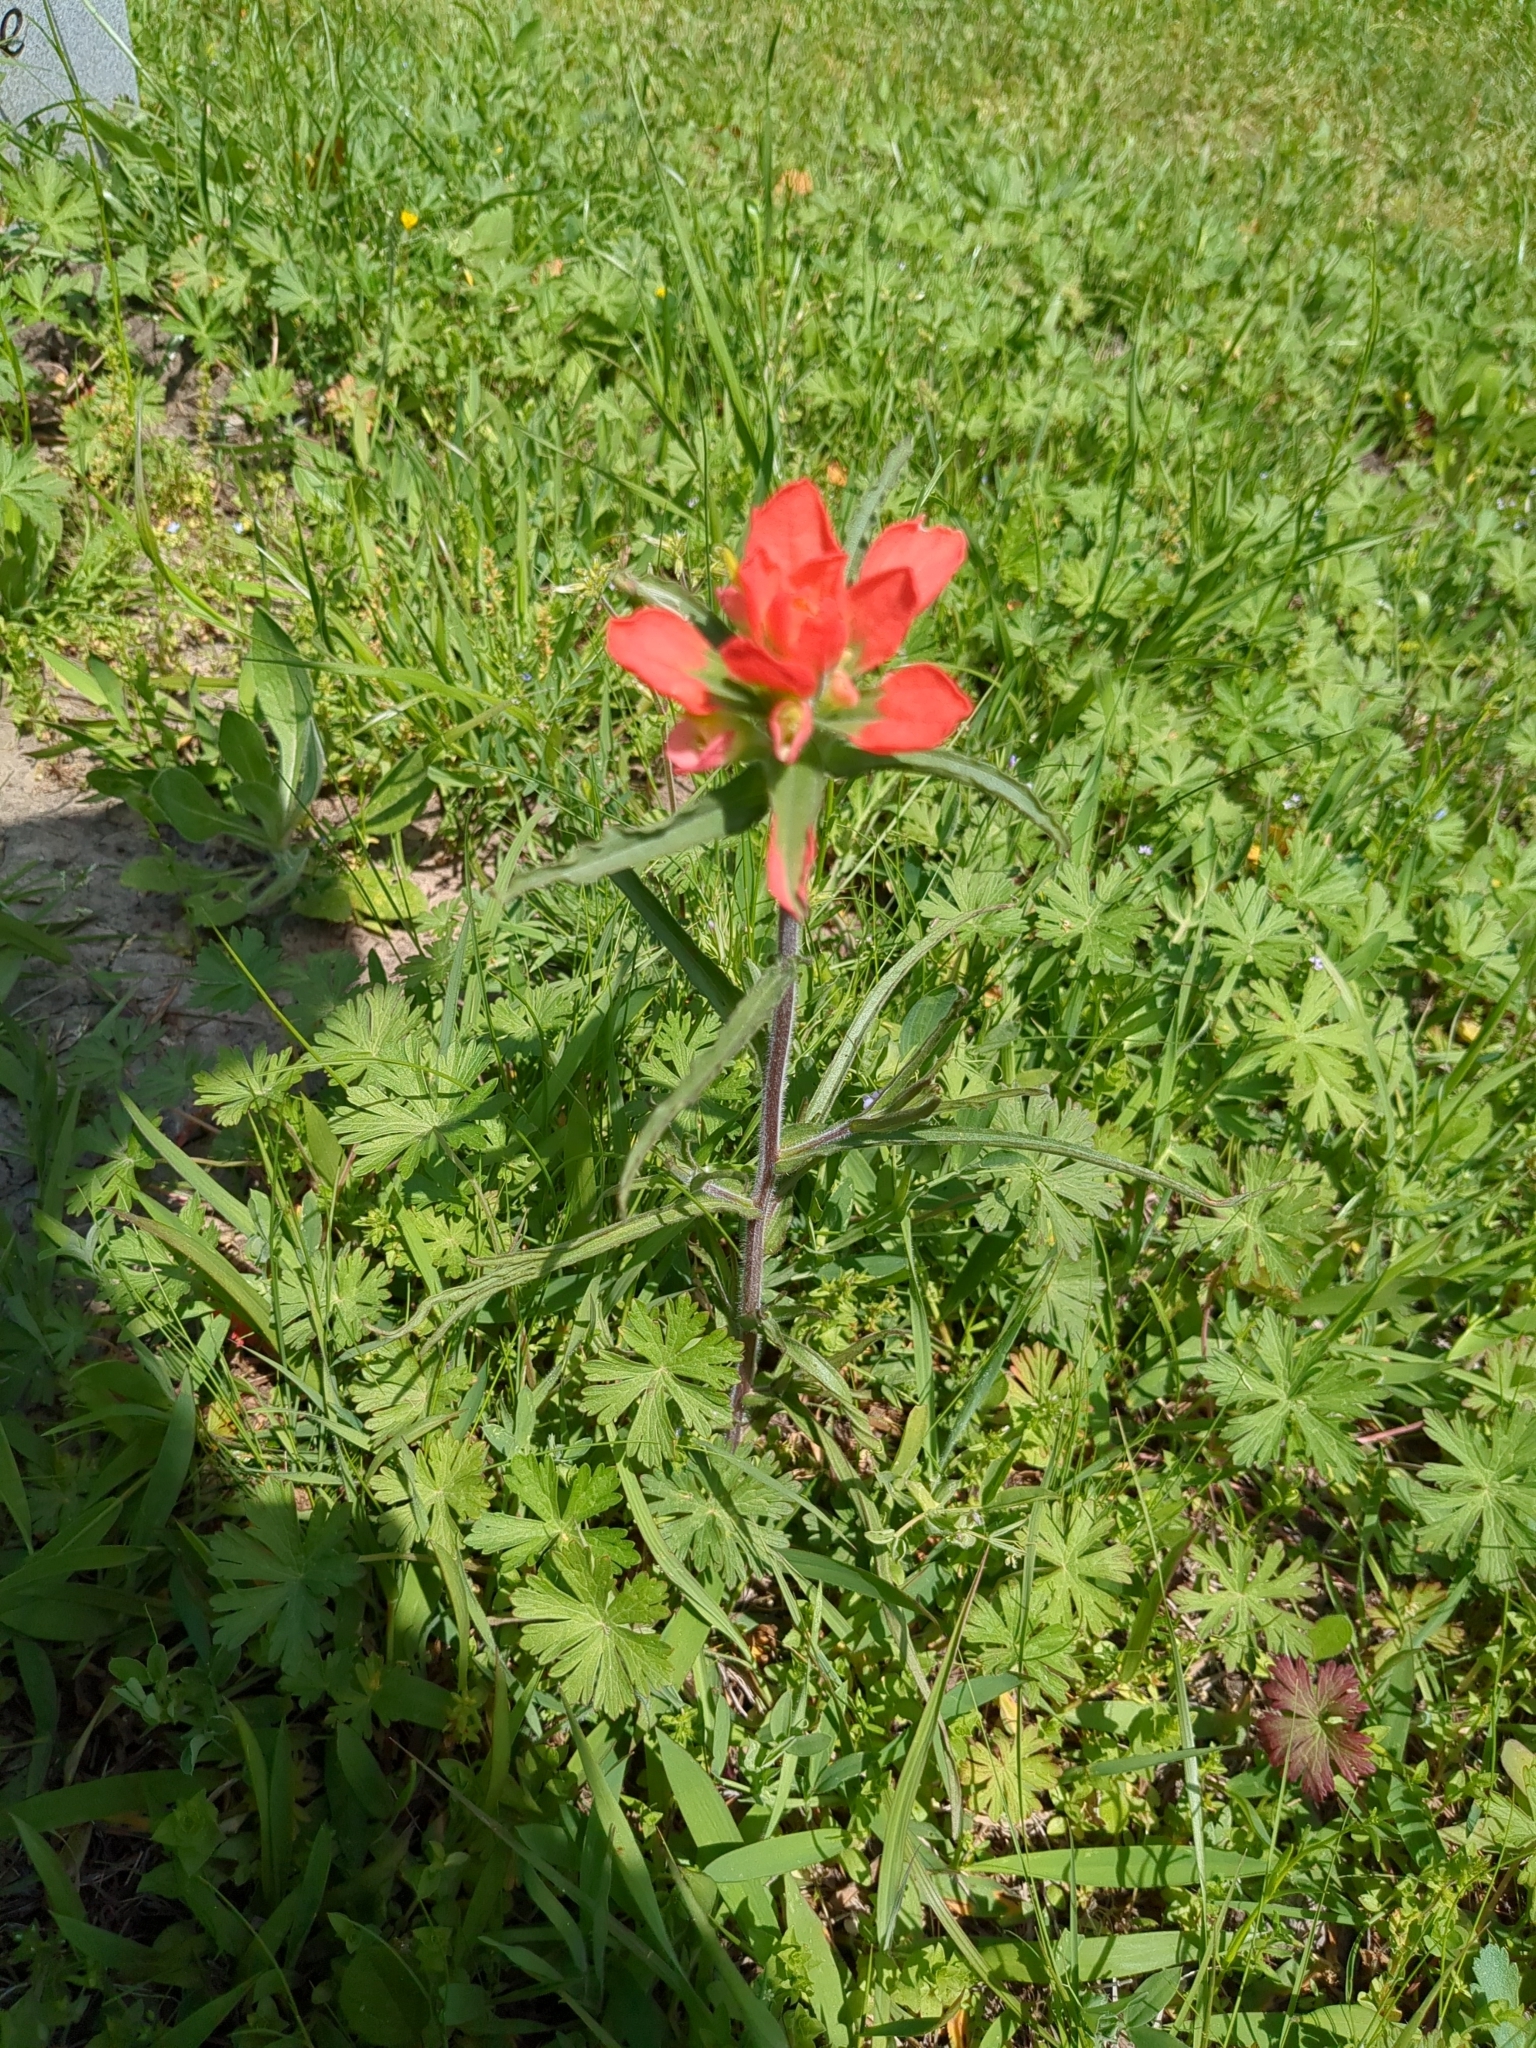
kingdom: Plantae
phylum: Tracheophyta
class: Magnoliopsida
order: Lamiales
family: Orobanchaceae
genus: Castilleja
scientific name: Castilleja indivisa
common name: Texas paintbrush
